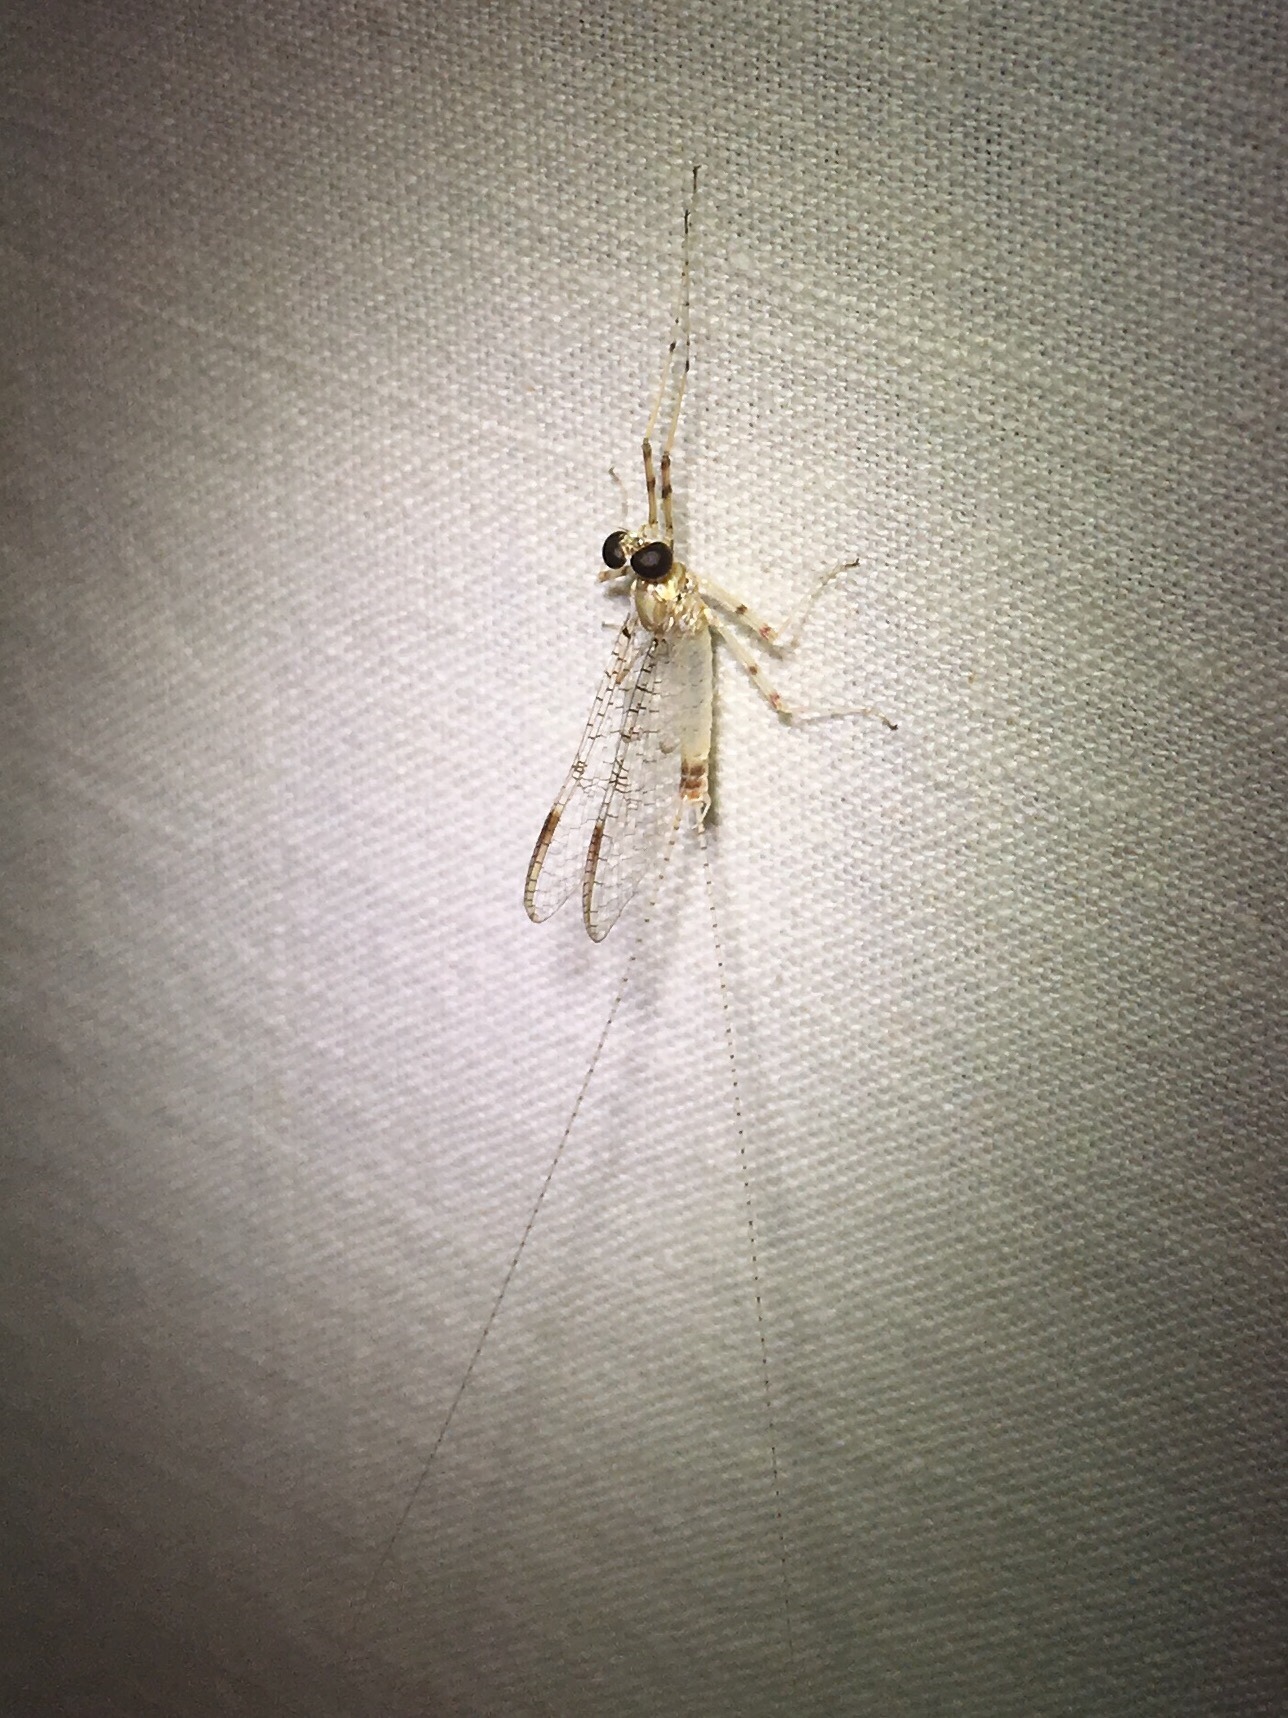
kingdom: Animalia
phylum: Arthropoda
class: Insecta
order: Ephemeroptera
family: Heptageniidae
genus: Stenonema
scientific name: Stenonema femoratum
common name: Dark cahill
